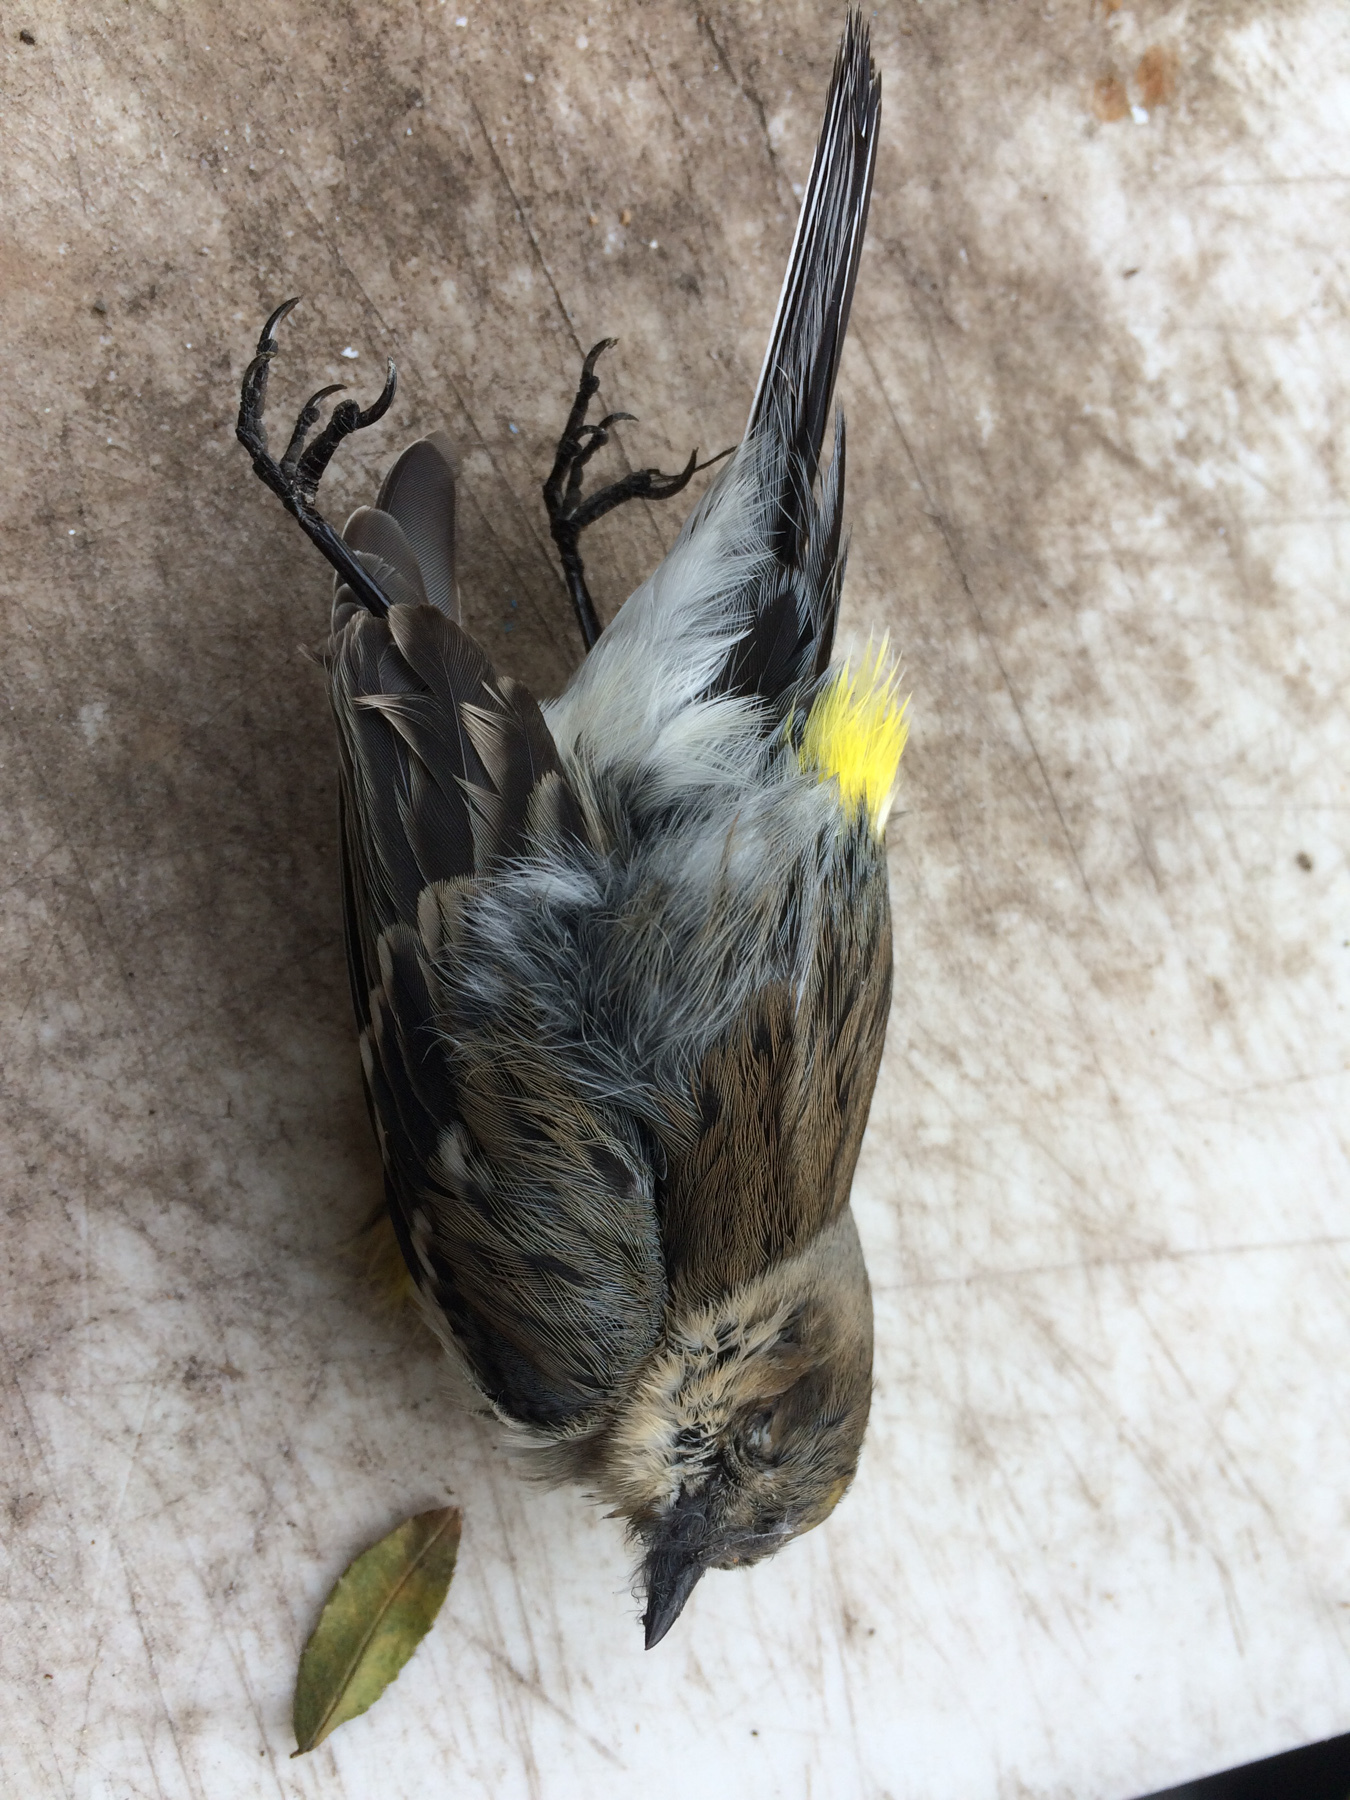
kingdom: Animalia
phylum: Chordata
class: Aves
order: Passeriformes
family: Parulidae
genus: Setophaga
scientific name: Setophaga coronata
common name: Myrtle warbler
